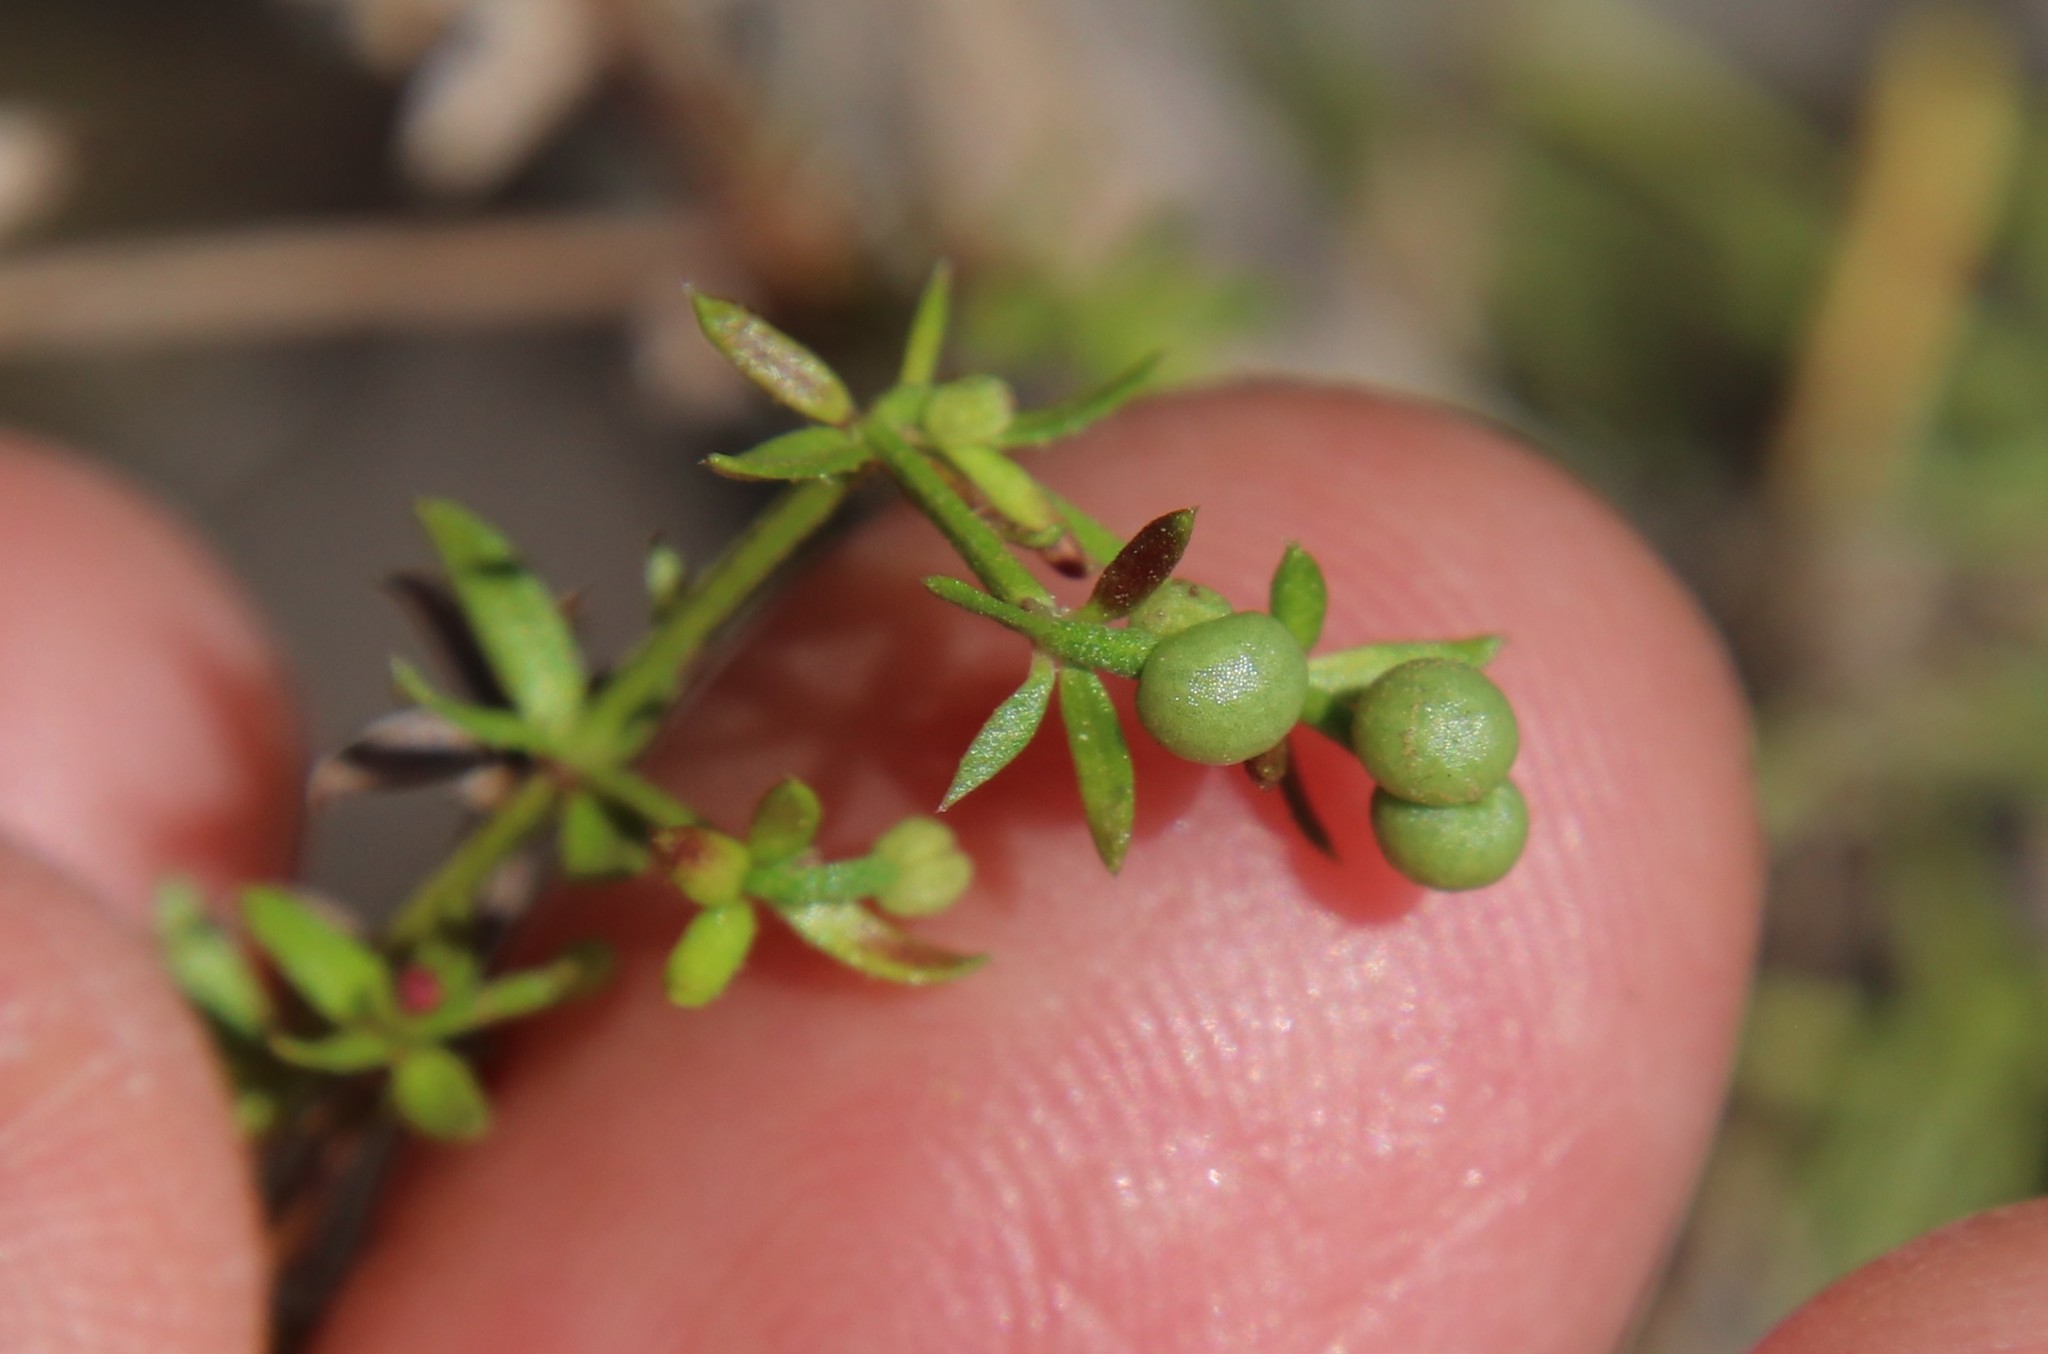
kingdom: Plantae
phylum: Tracheophyta
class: Magnoliopsida
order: Gentianales
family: Rubiaceae
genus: Galium
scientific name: Galium porrigens
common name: Climbing bedstraw
